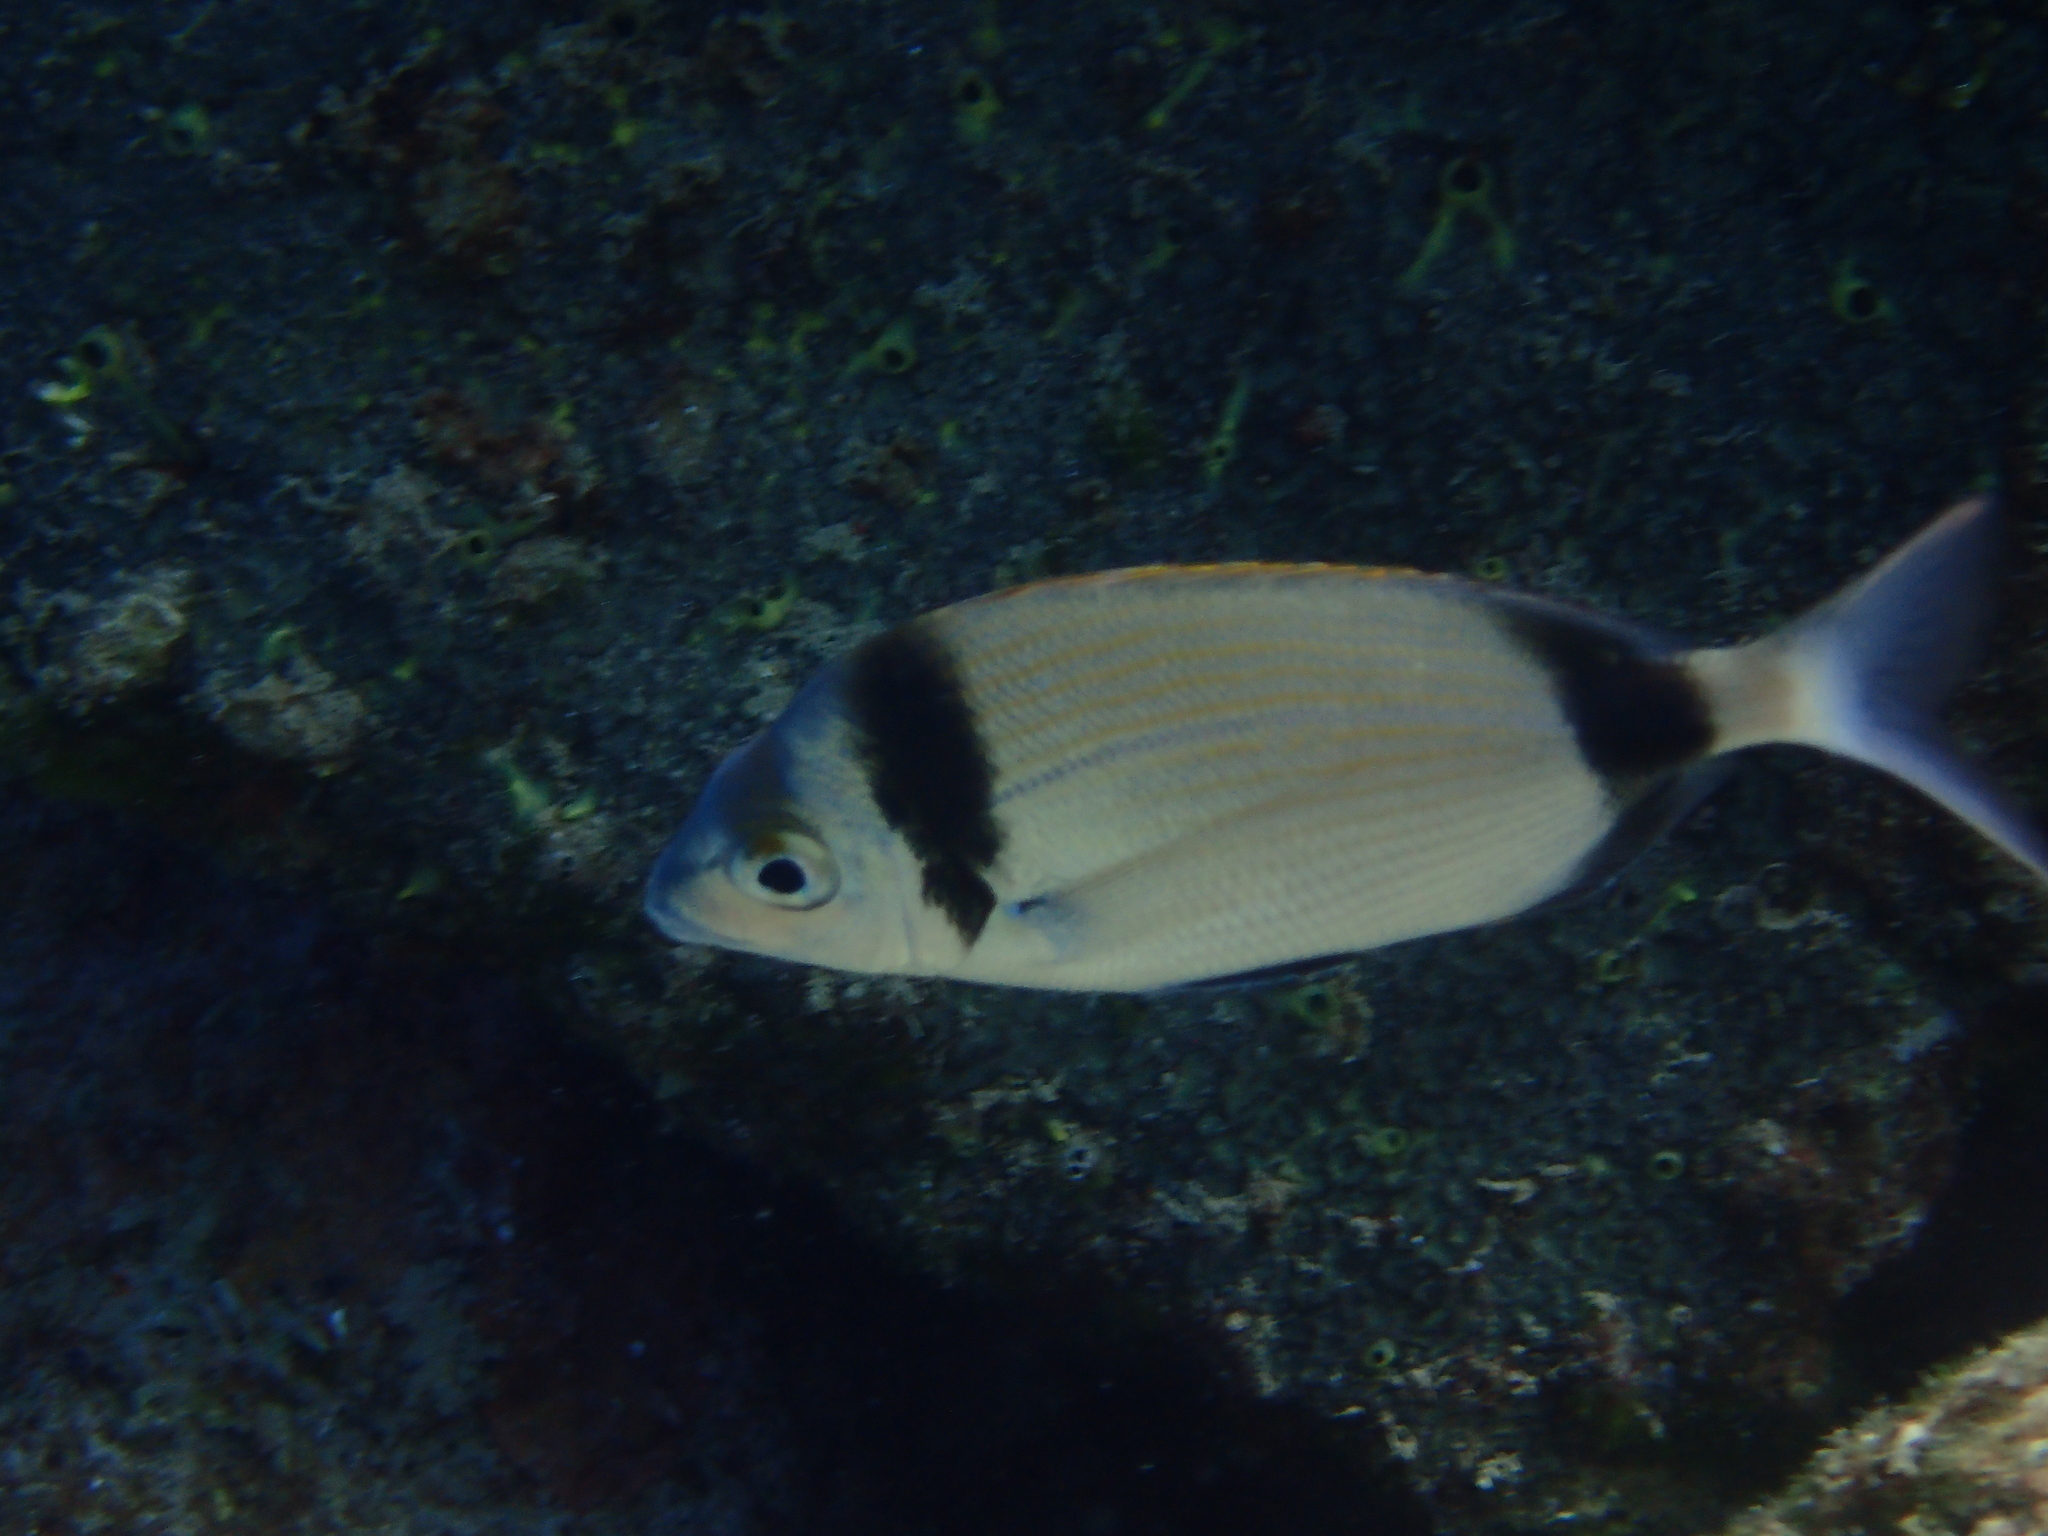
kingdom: Animalia
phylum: Chordata
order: Perciformes
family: Sparidae
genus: Diplodus
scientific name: Diplodus vulgaris
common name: Common two-banded seabream
